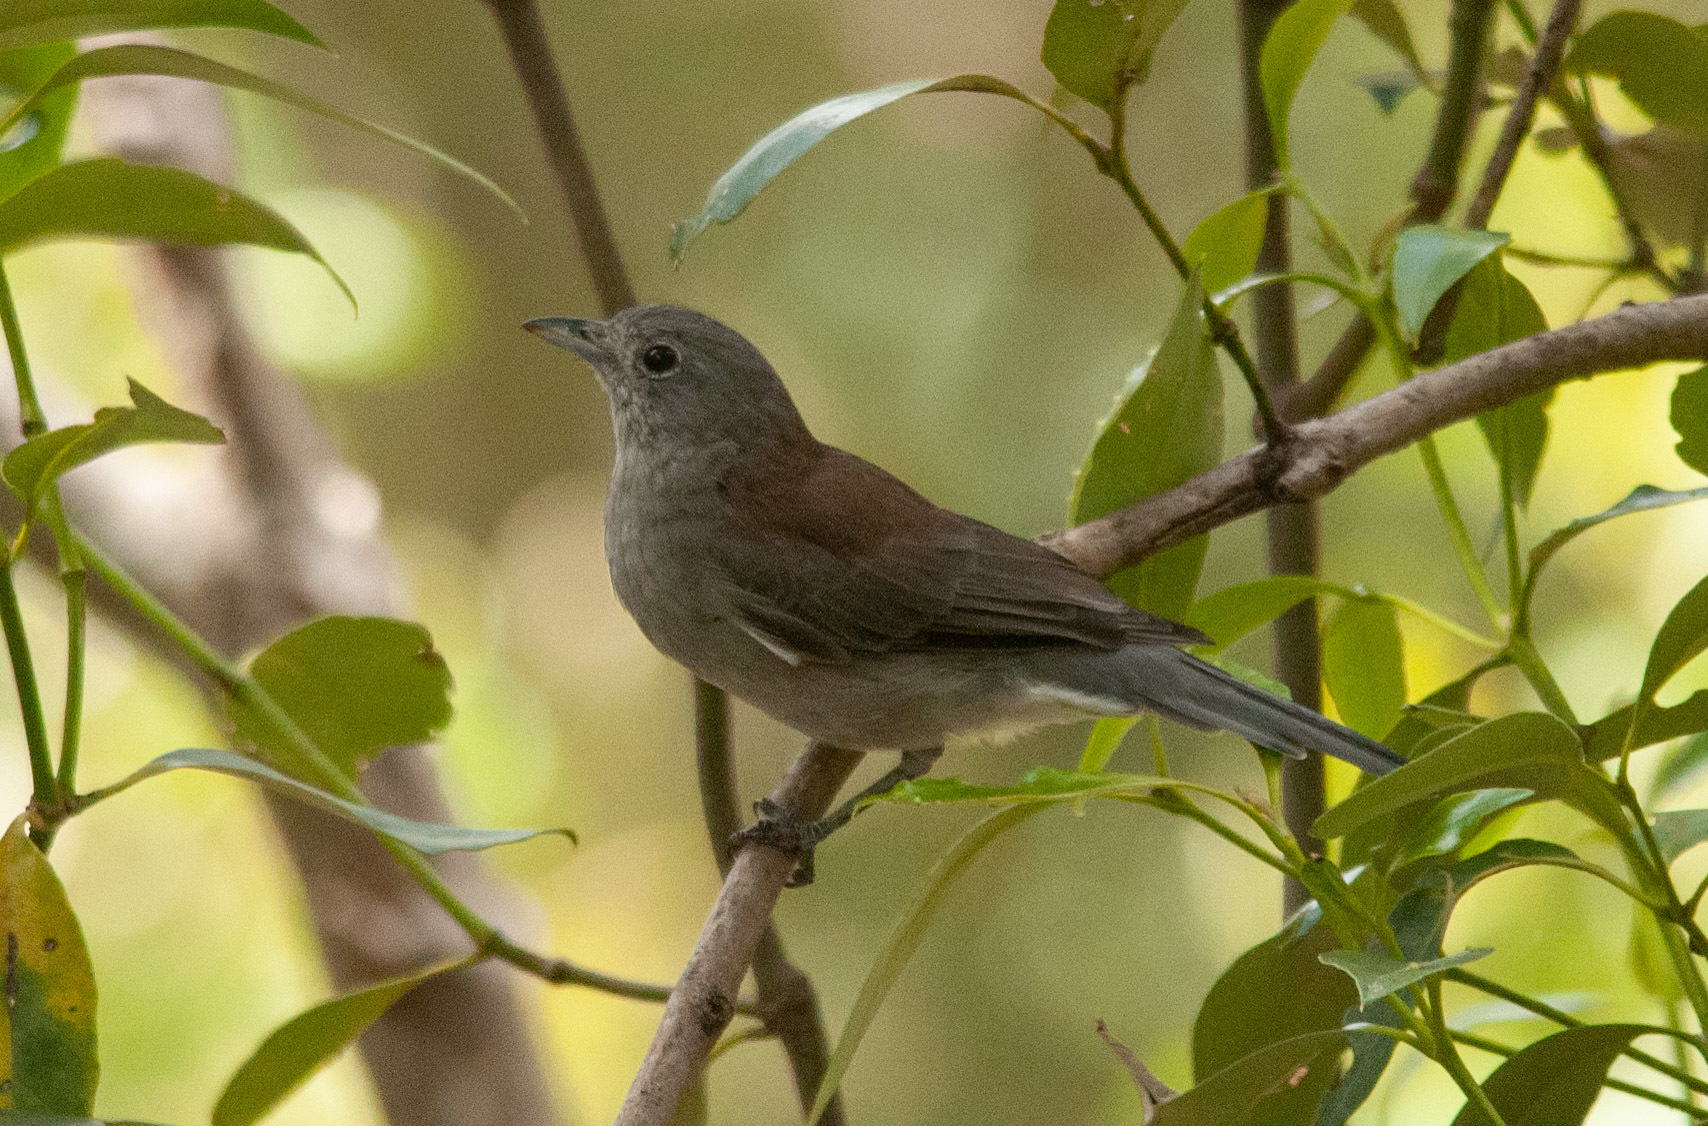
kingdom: Animalia
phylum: Chordata
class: Aves
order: Passeriformes
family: Pachycephalidae
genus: Colluricincla
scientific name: Colluricincla harmonica
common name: Grey shrikethrush
